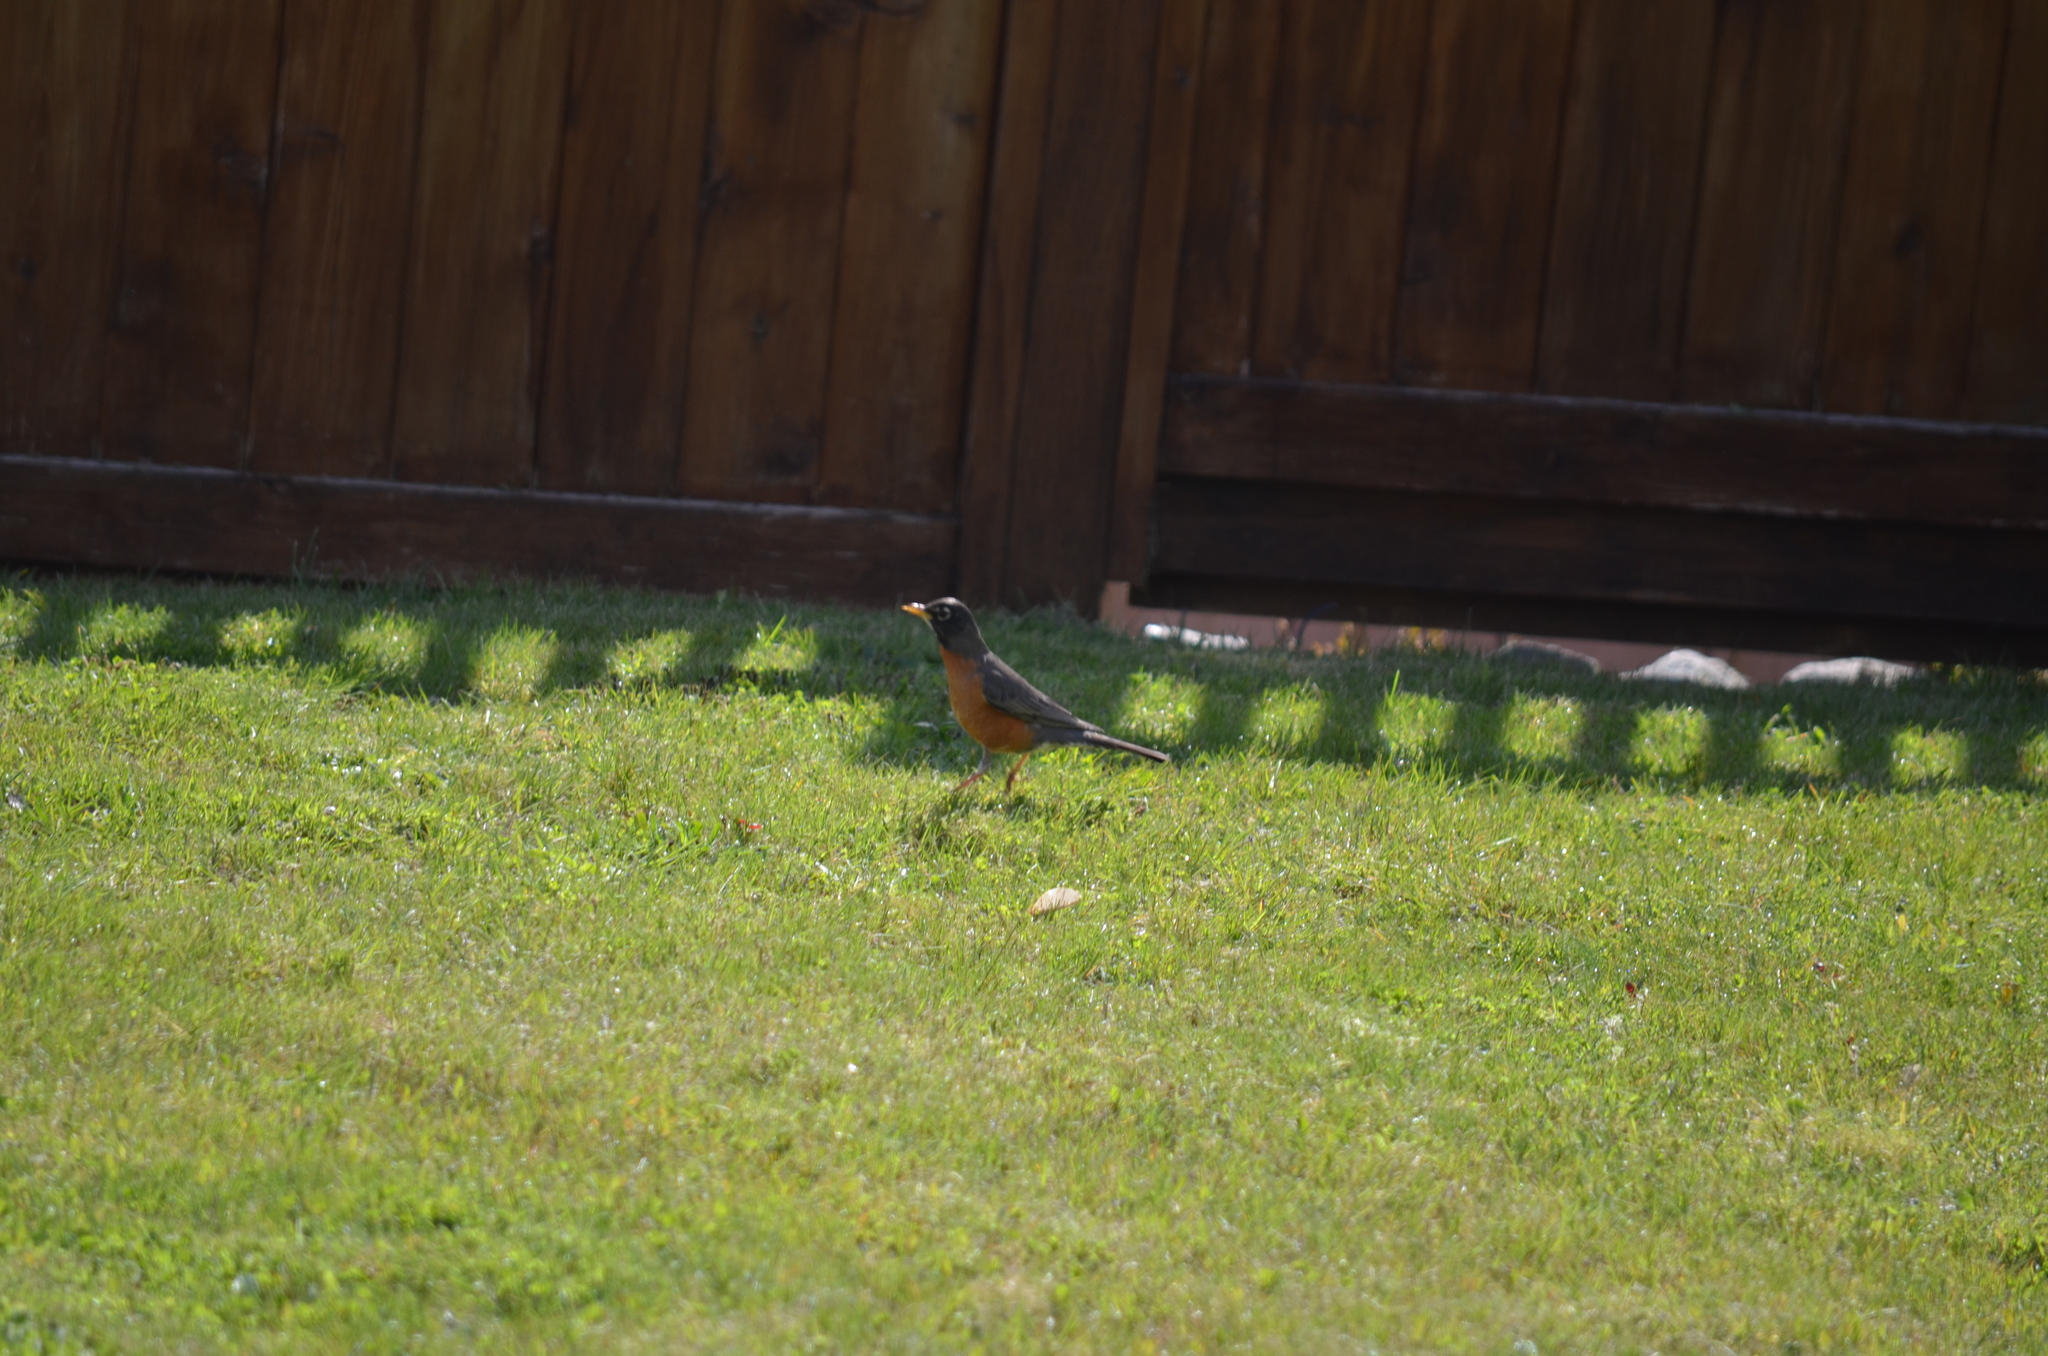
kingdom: Animalia
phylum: Chordata
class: Aves
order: Passeriformes
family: Turdidae
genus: Turdus
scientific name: Turdus migratorius
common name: American robin
